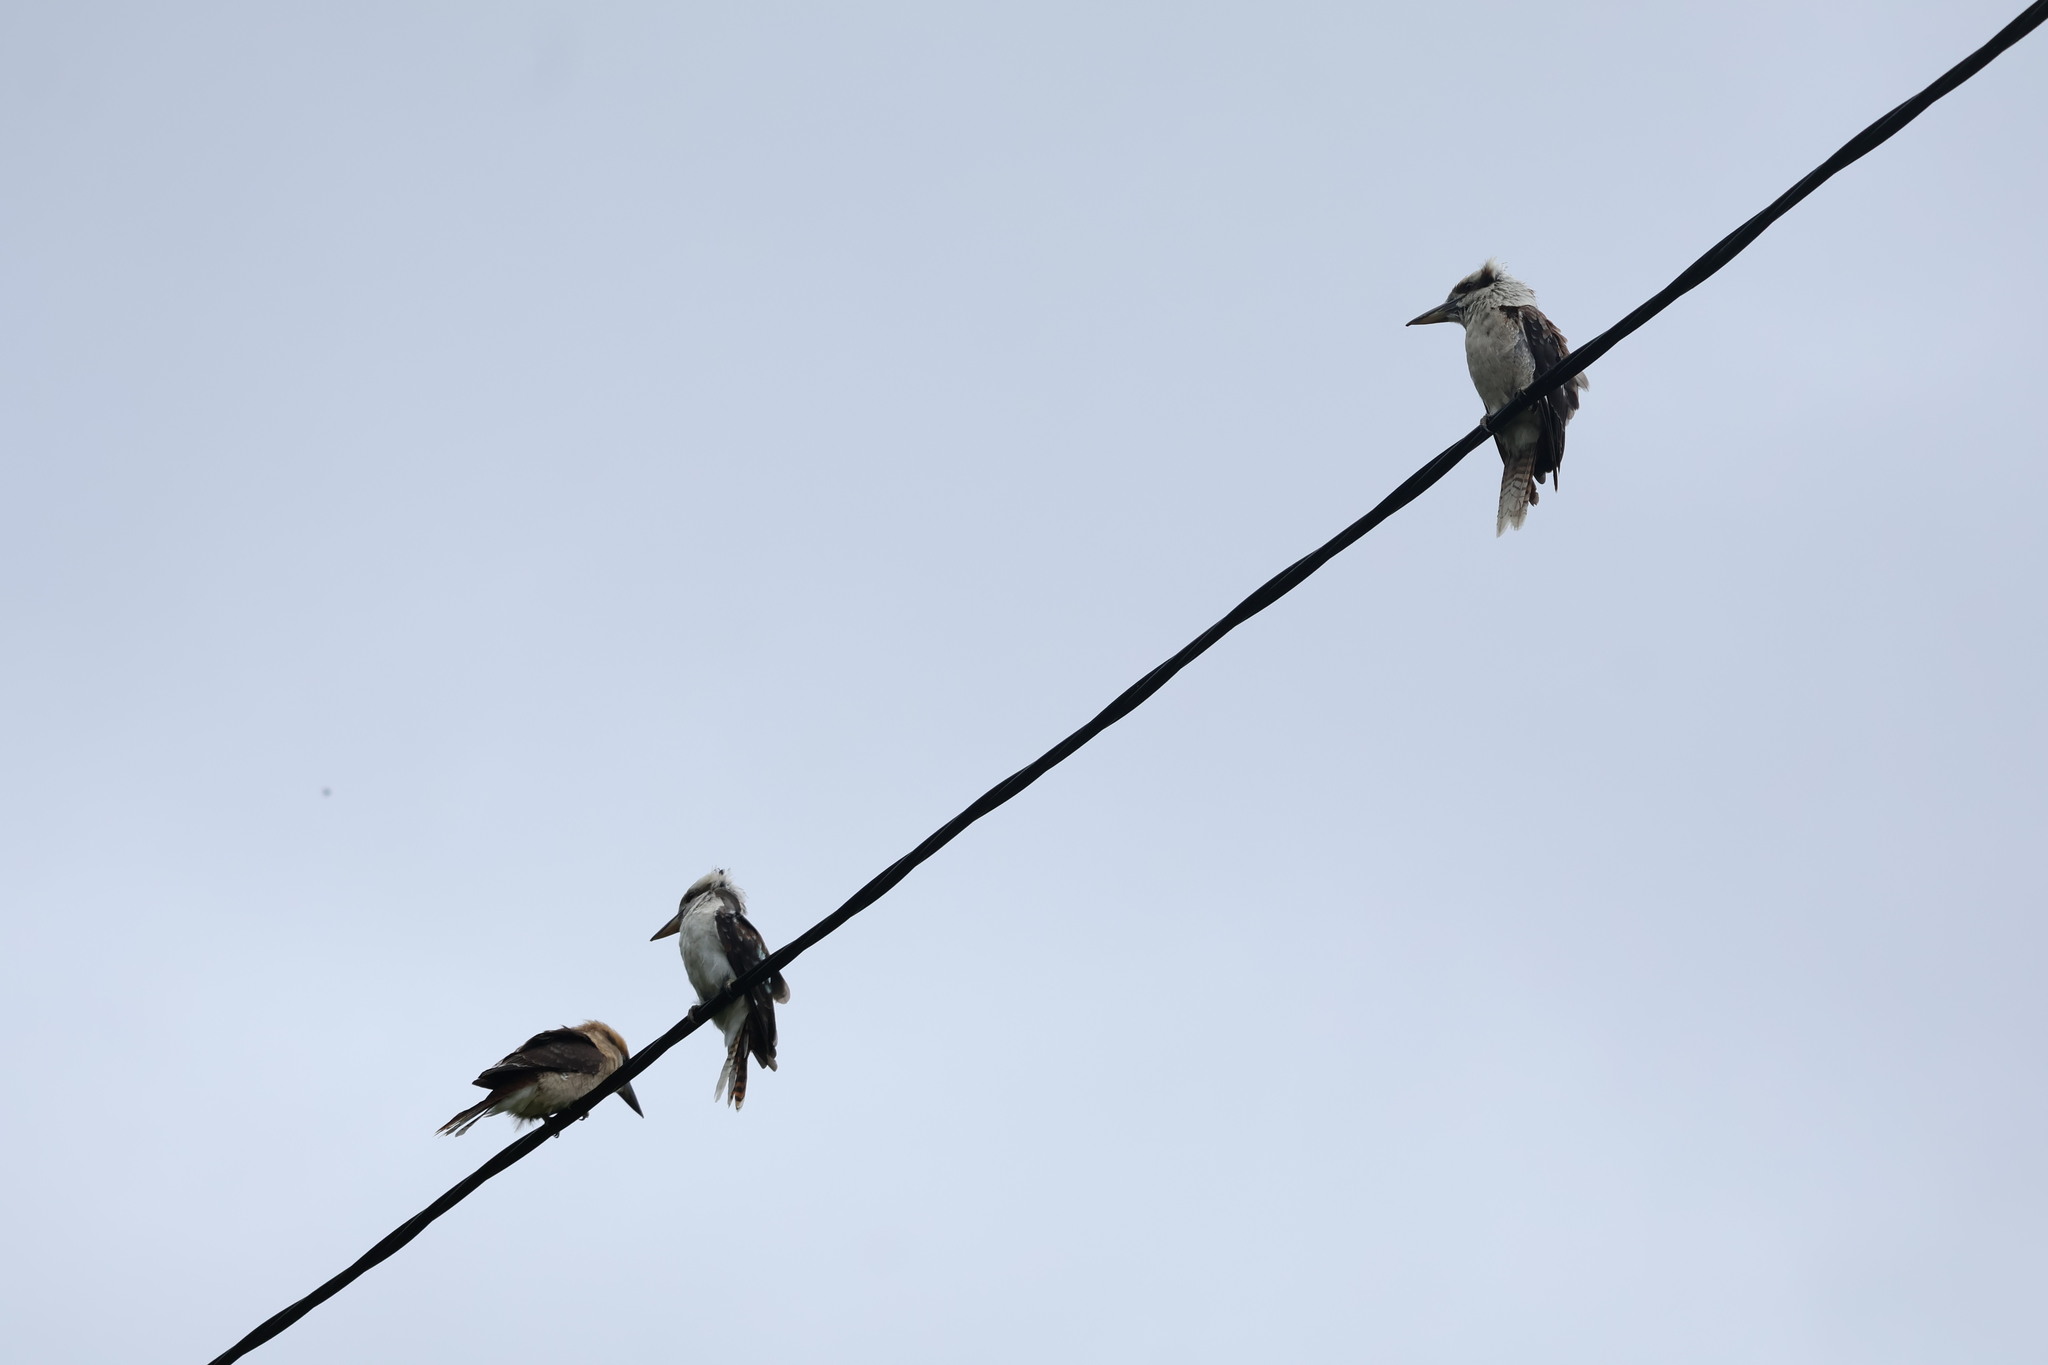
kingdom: Animalia
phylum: Chordata
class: Aves
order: Coraciiformes
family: Alcedinidae
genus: Dacelo
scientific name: Dacelo novaeguineae
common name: Laughing kookaburra
